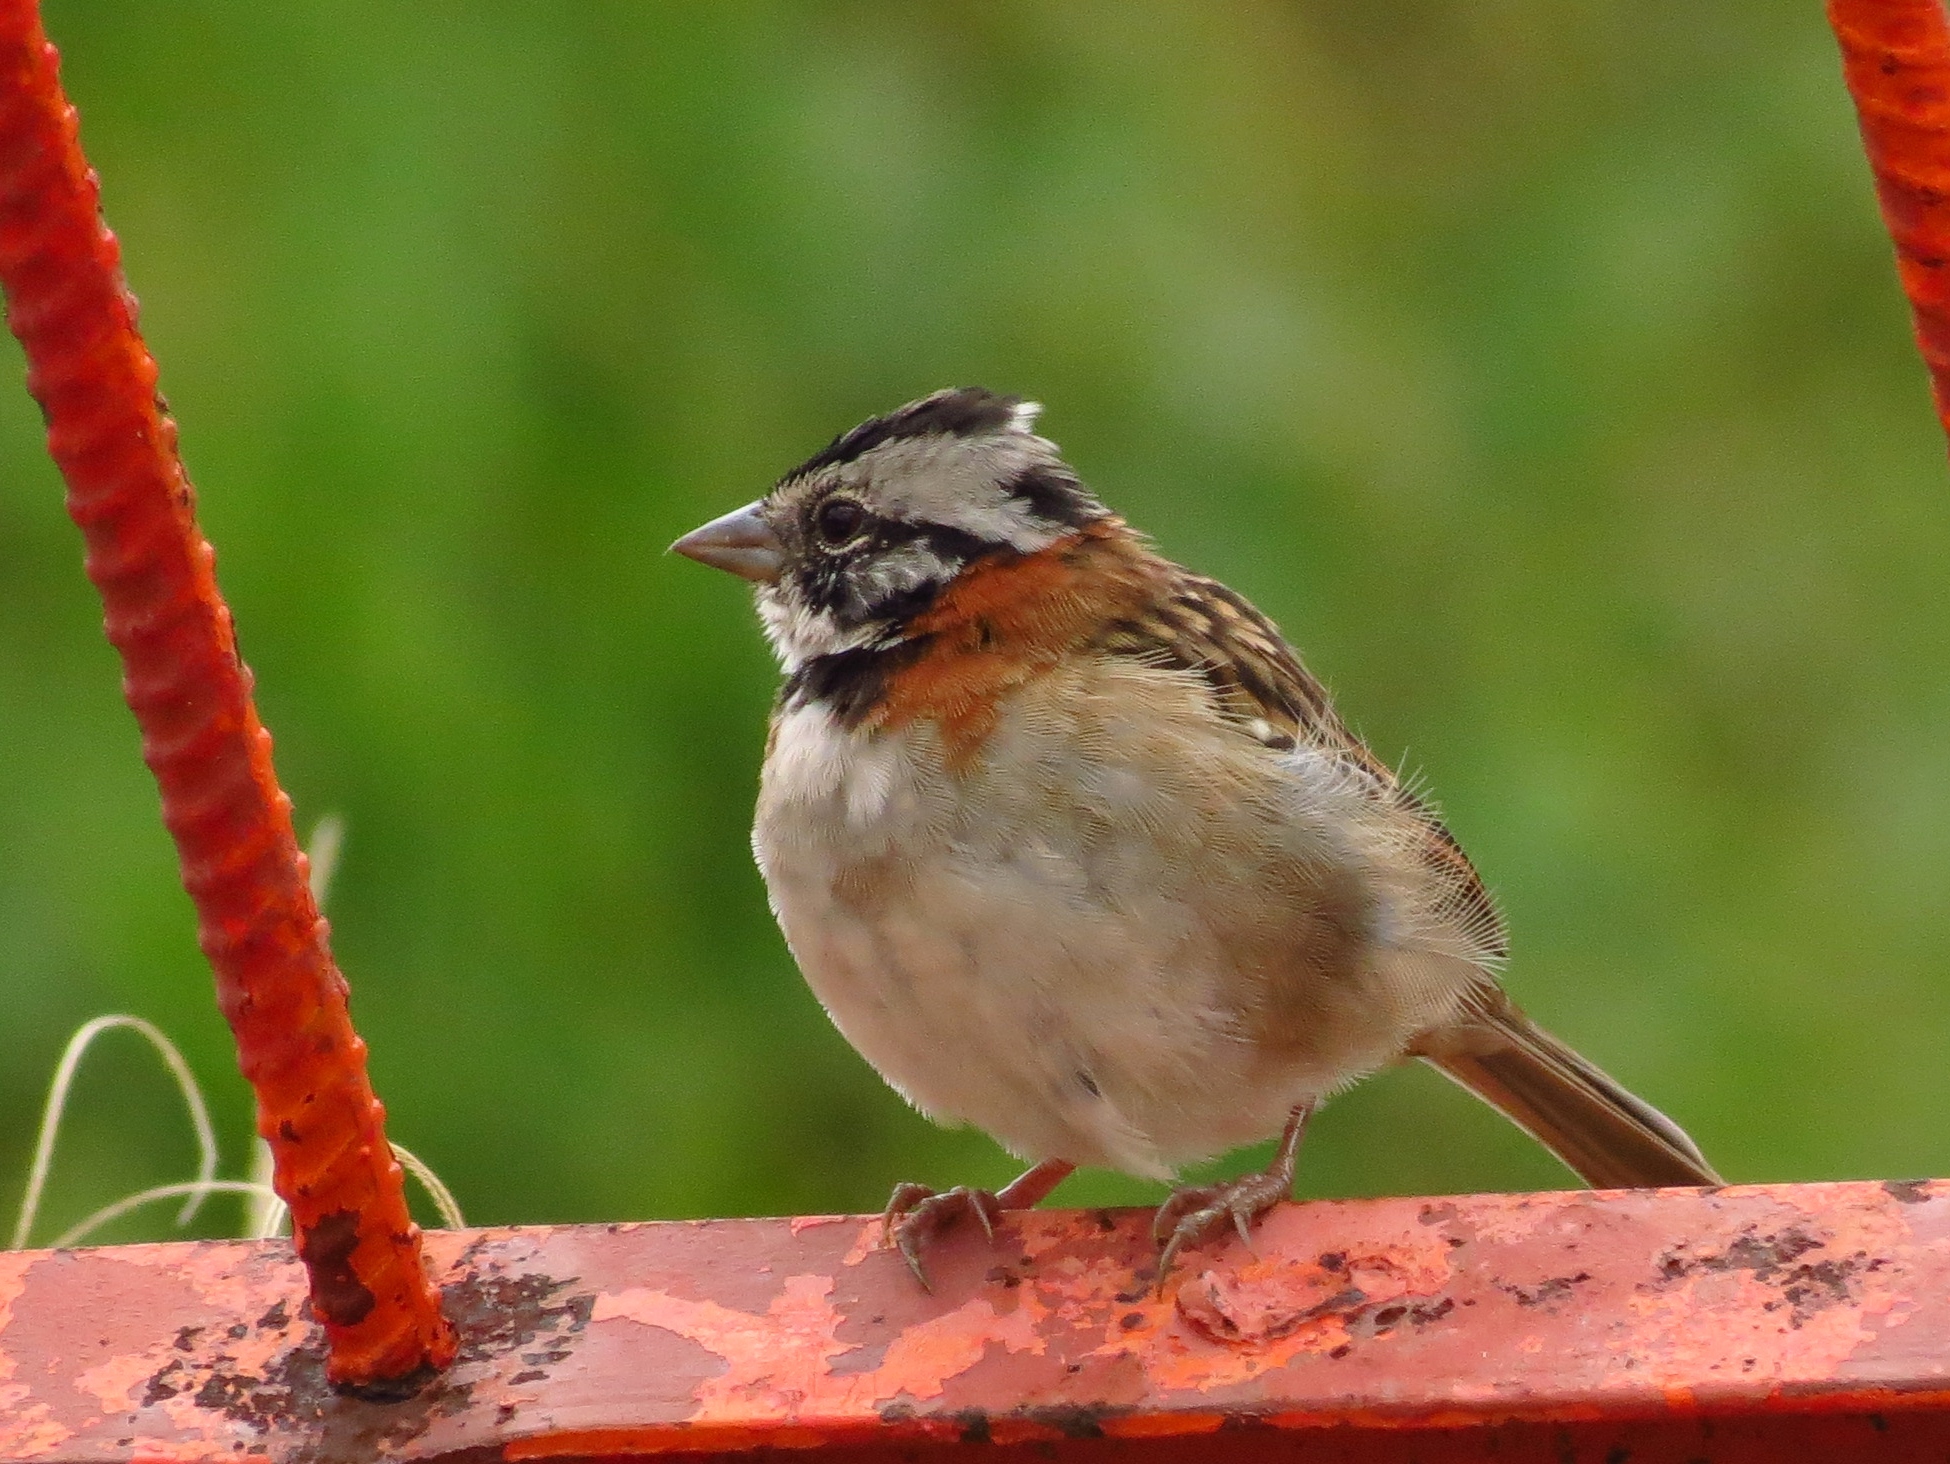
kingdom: Animalia
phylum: Chordata
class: Aves
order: Passeriformes
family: Passerellidae
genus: Zonotrichia
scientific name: Zonotrichia capensis
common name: Rufous-collared sparrow
